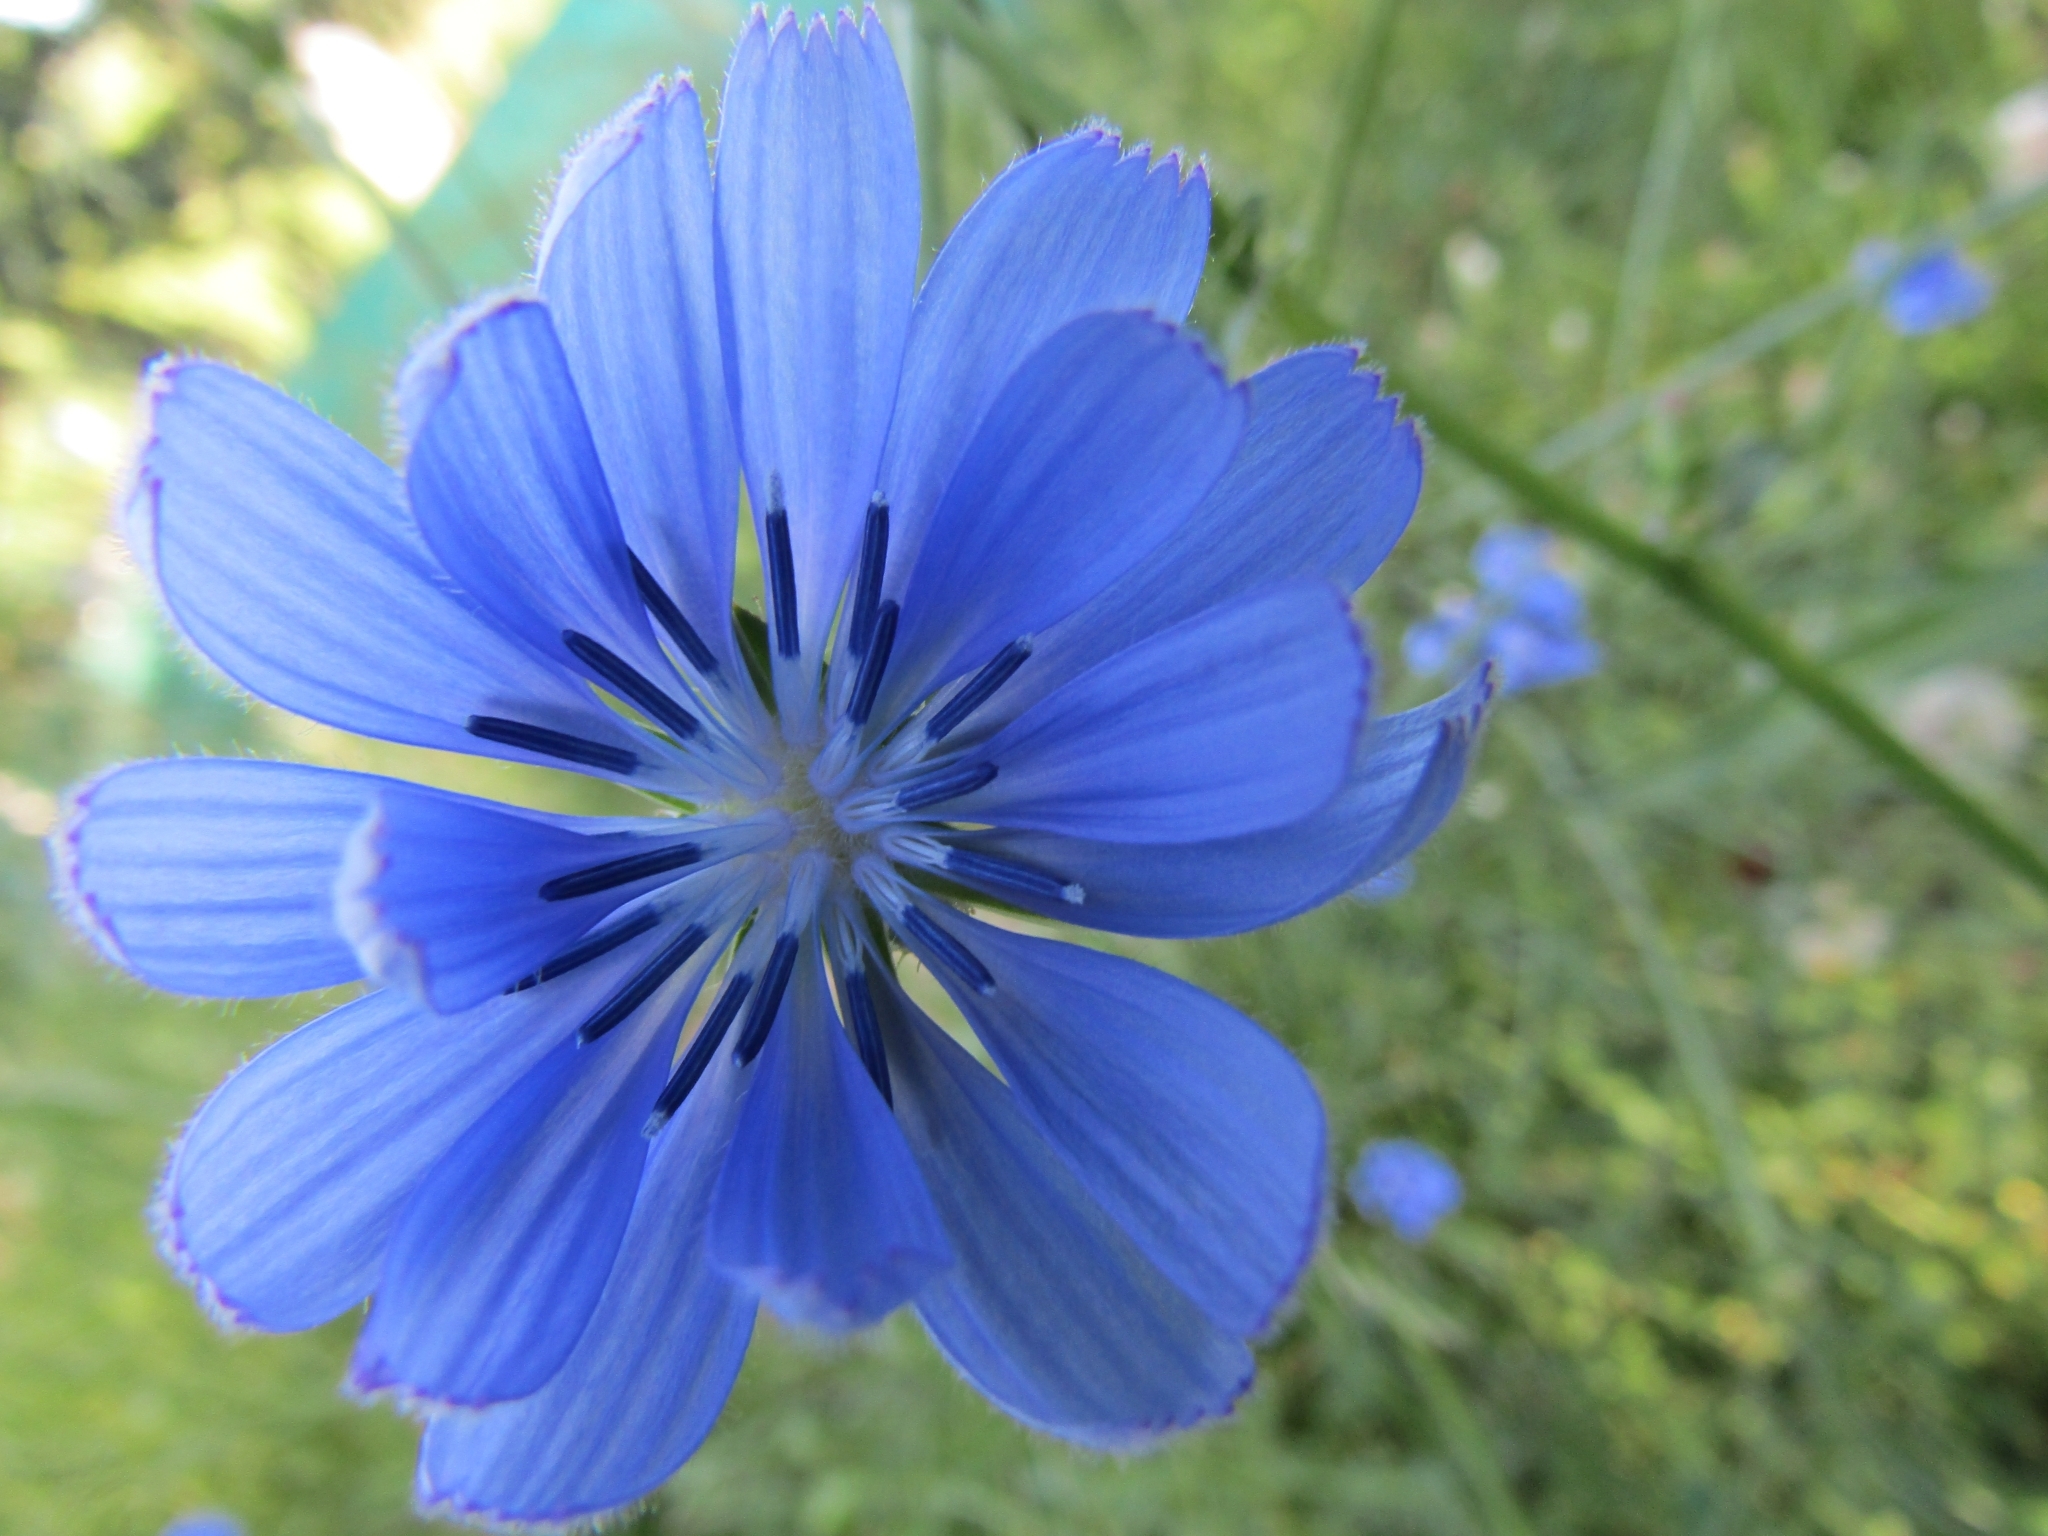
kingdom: Plantae
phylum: Tracheophyta
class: Magnoliopsida
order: Asterales
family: Asteraceae
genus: Cichorium
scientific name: Cichorium intybus
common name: Chicory
